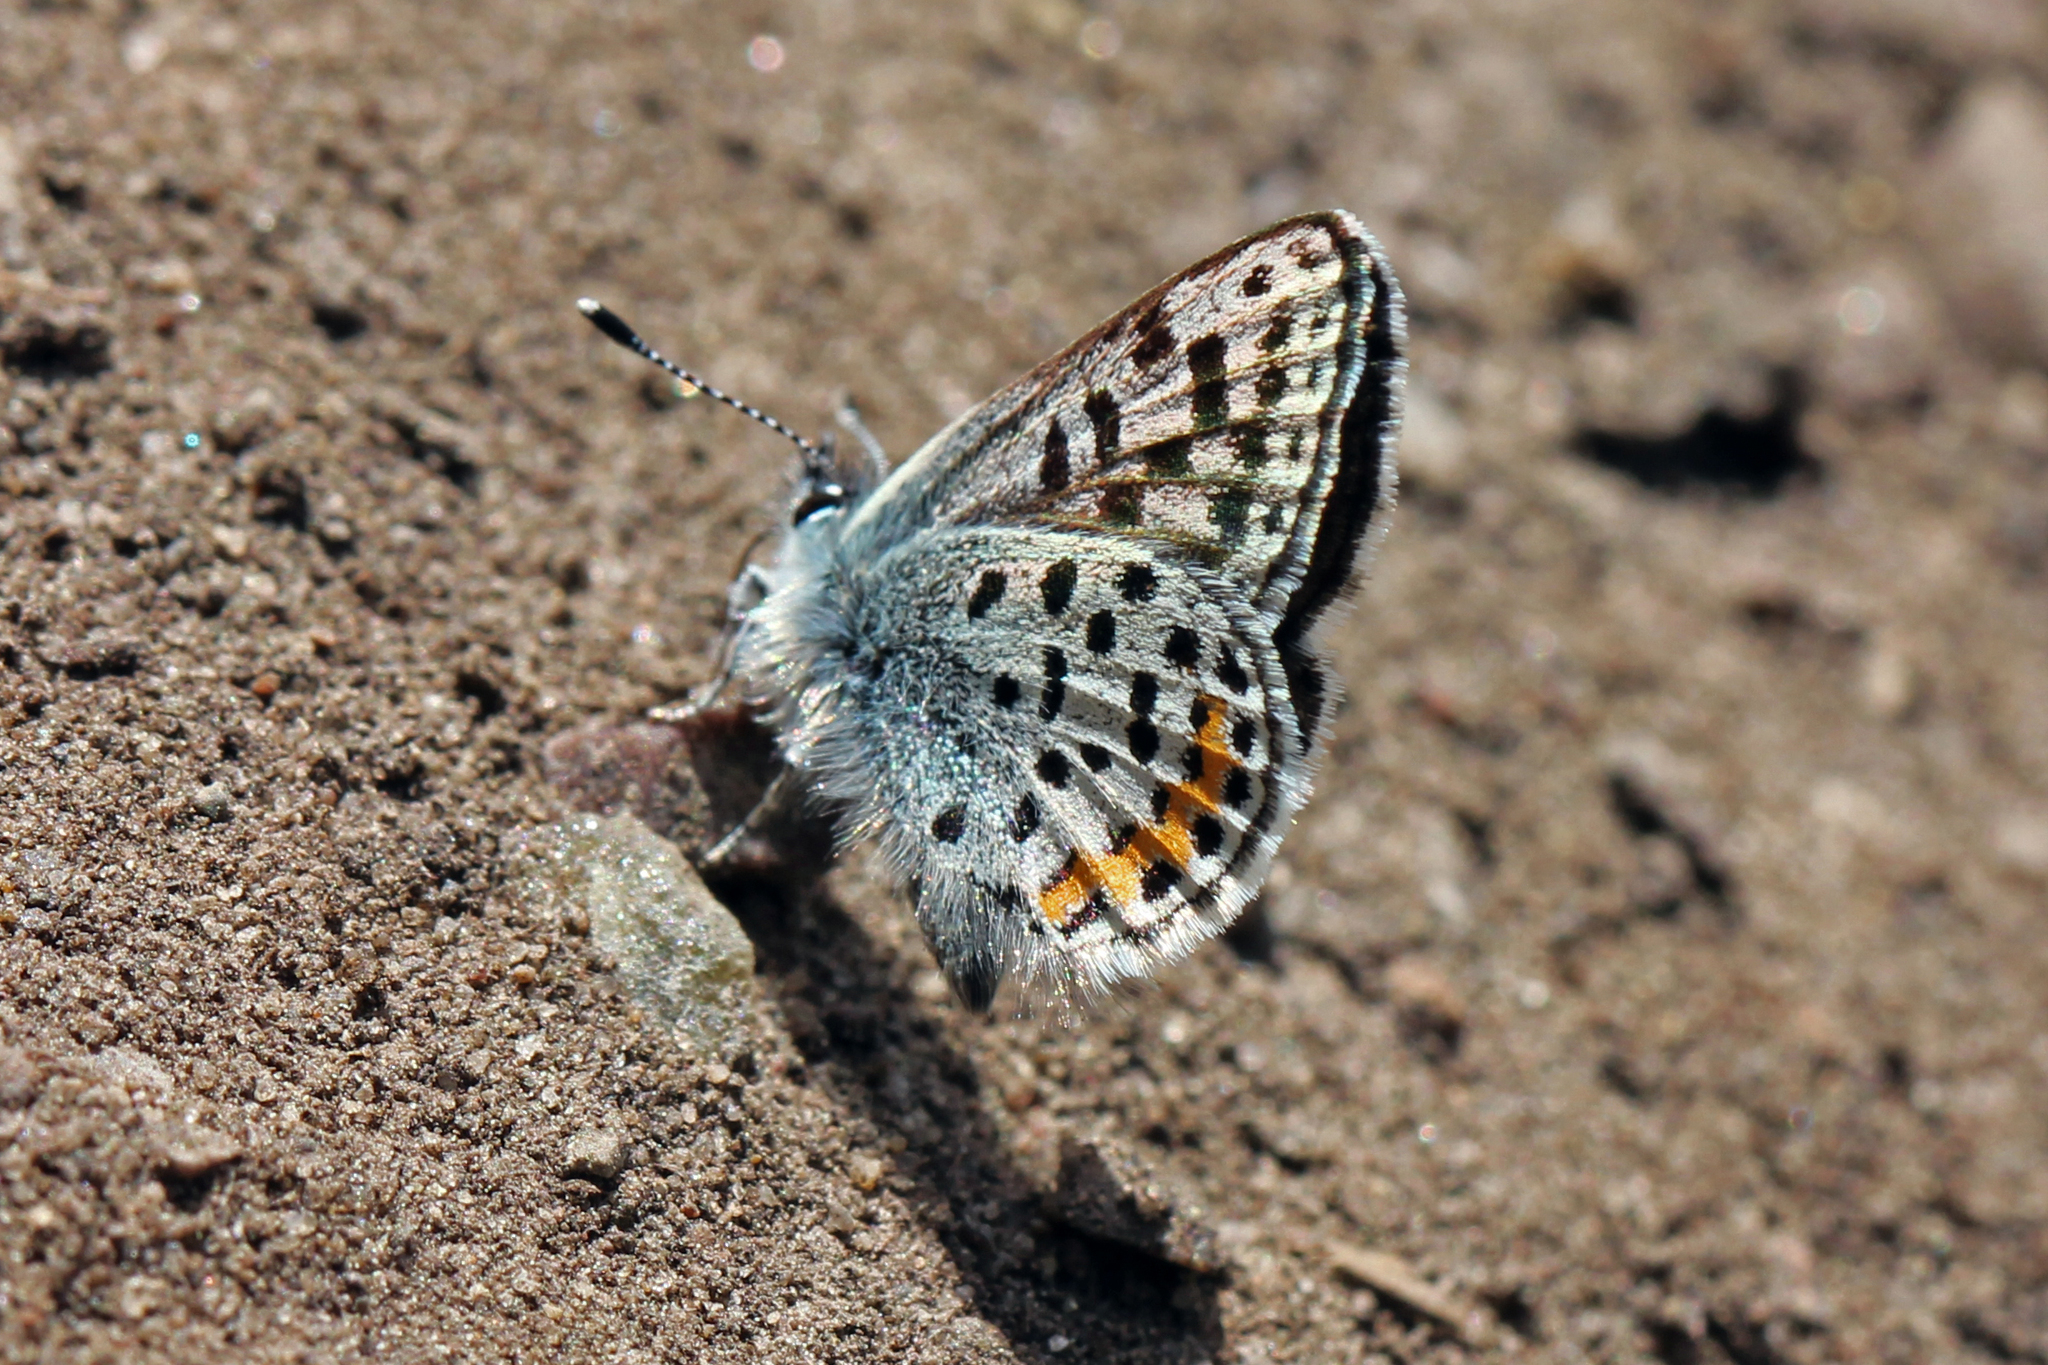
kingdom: Animalia
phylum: Arthropoda
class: Insecta
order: Lepidoptera
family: Lycaenidae
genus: Euphilotes
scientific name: Euphilotes enoptes
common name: Dotted blue
